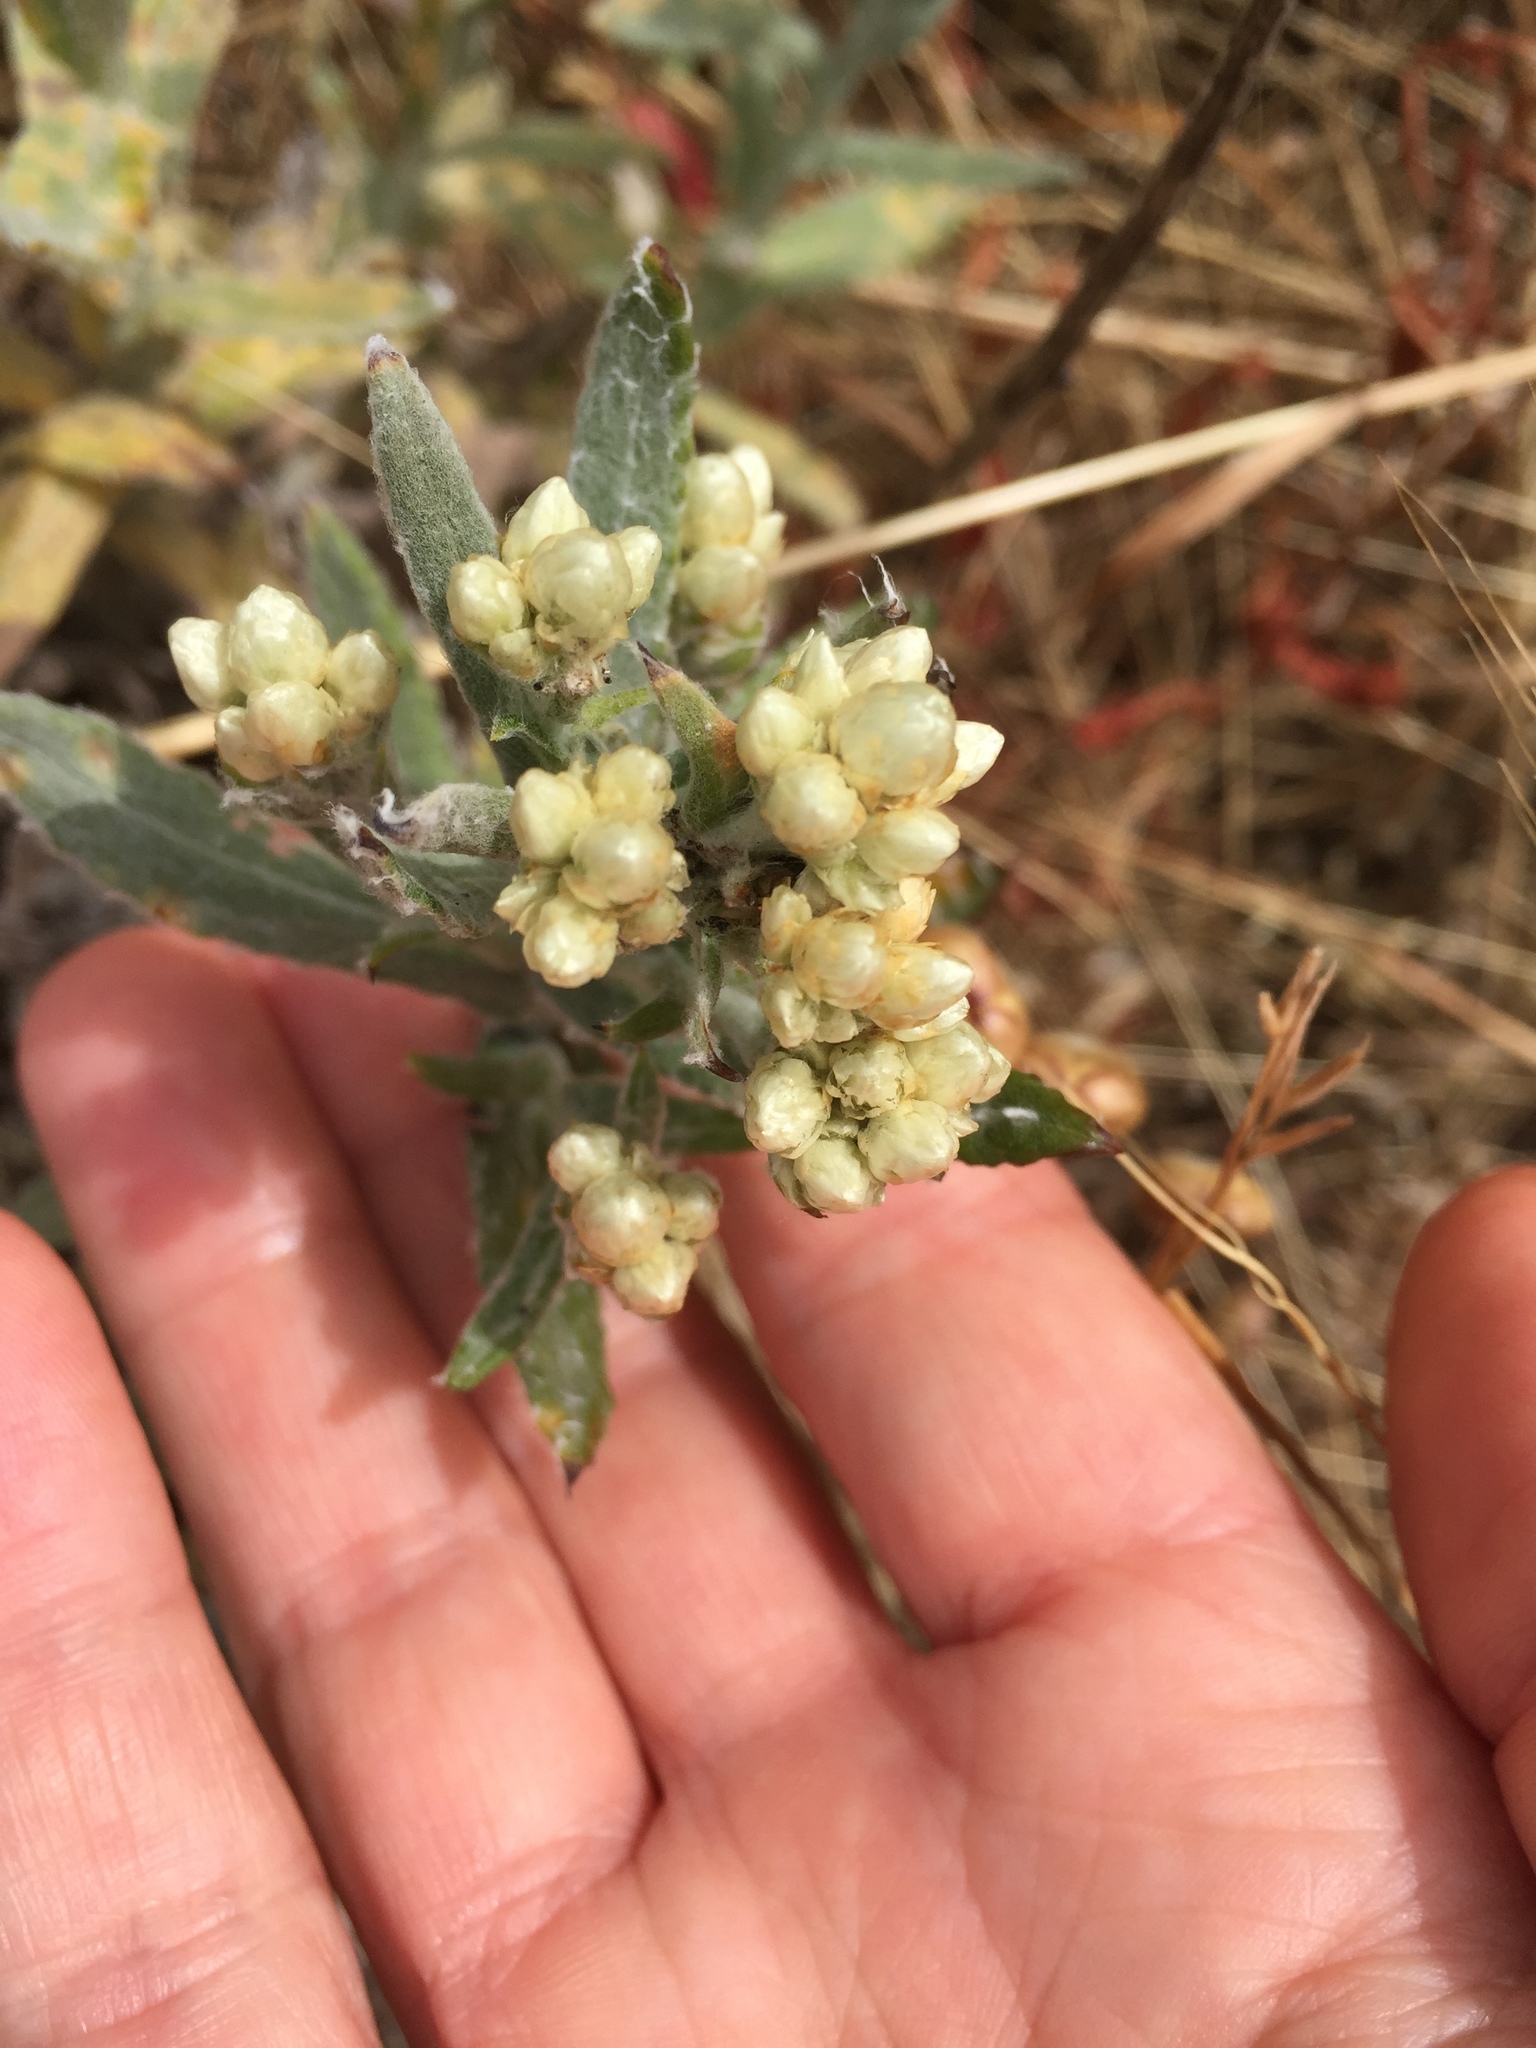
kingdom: Plantae
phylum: Tracheophyta
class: Magnoliopsida
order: Asterales
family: Asteraceae
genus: Pseudognaphalium
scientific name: Pseudognaphalium californicum
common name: California rabbit-tobacco
